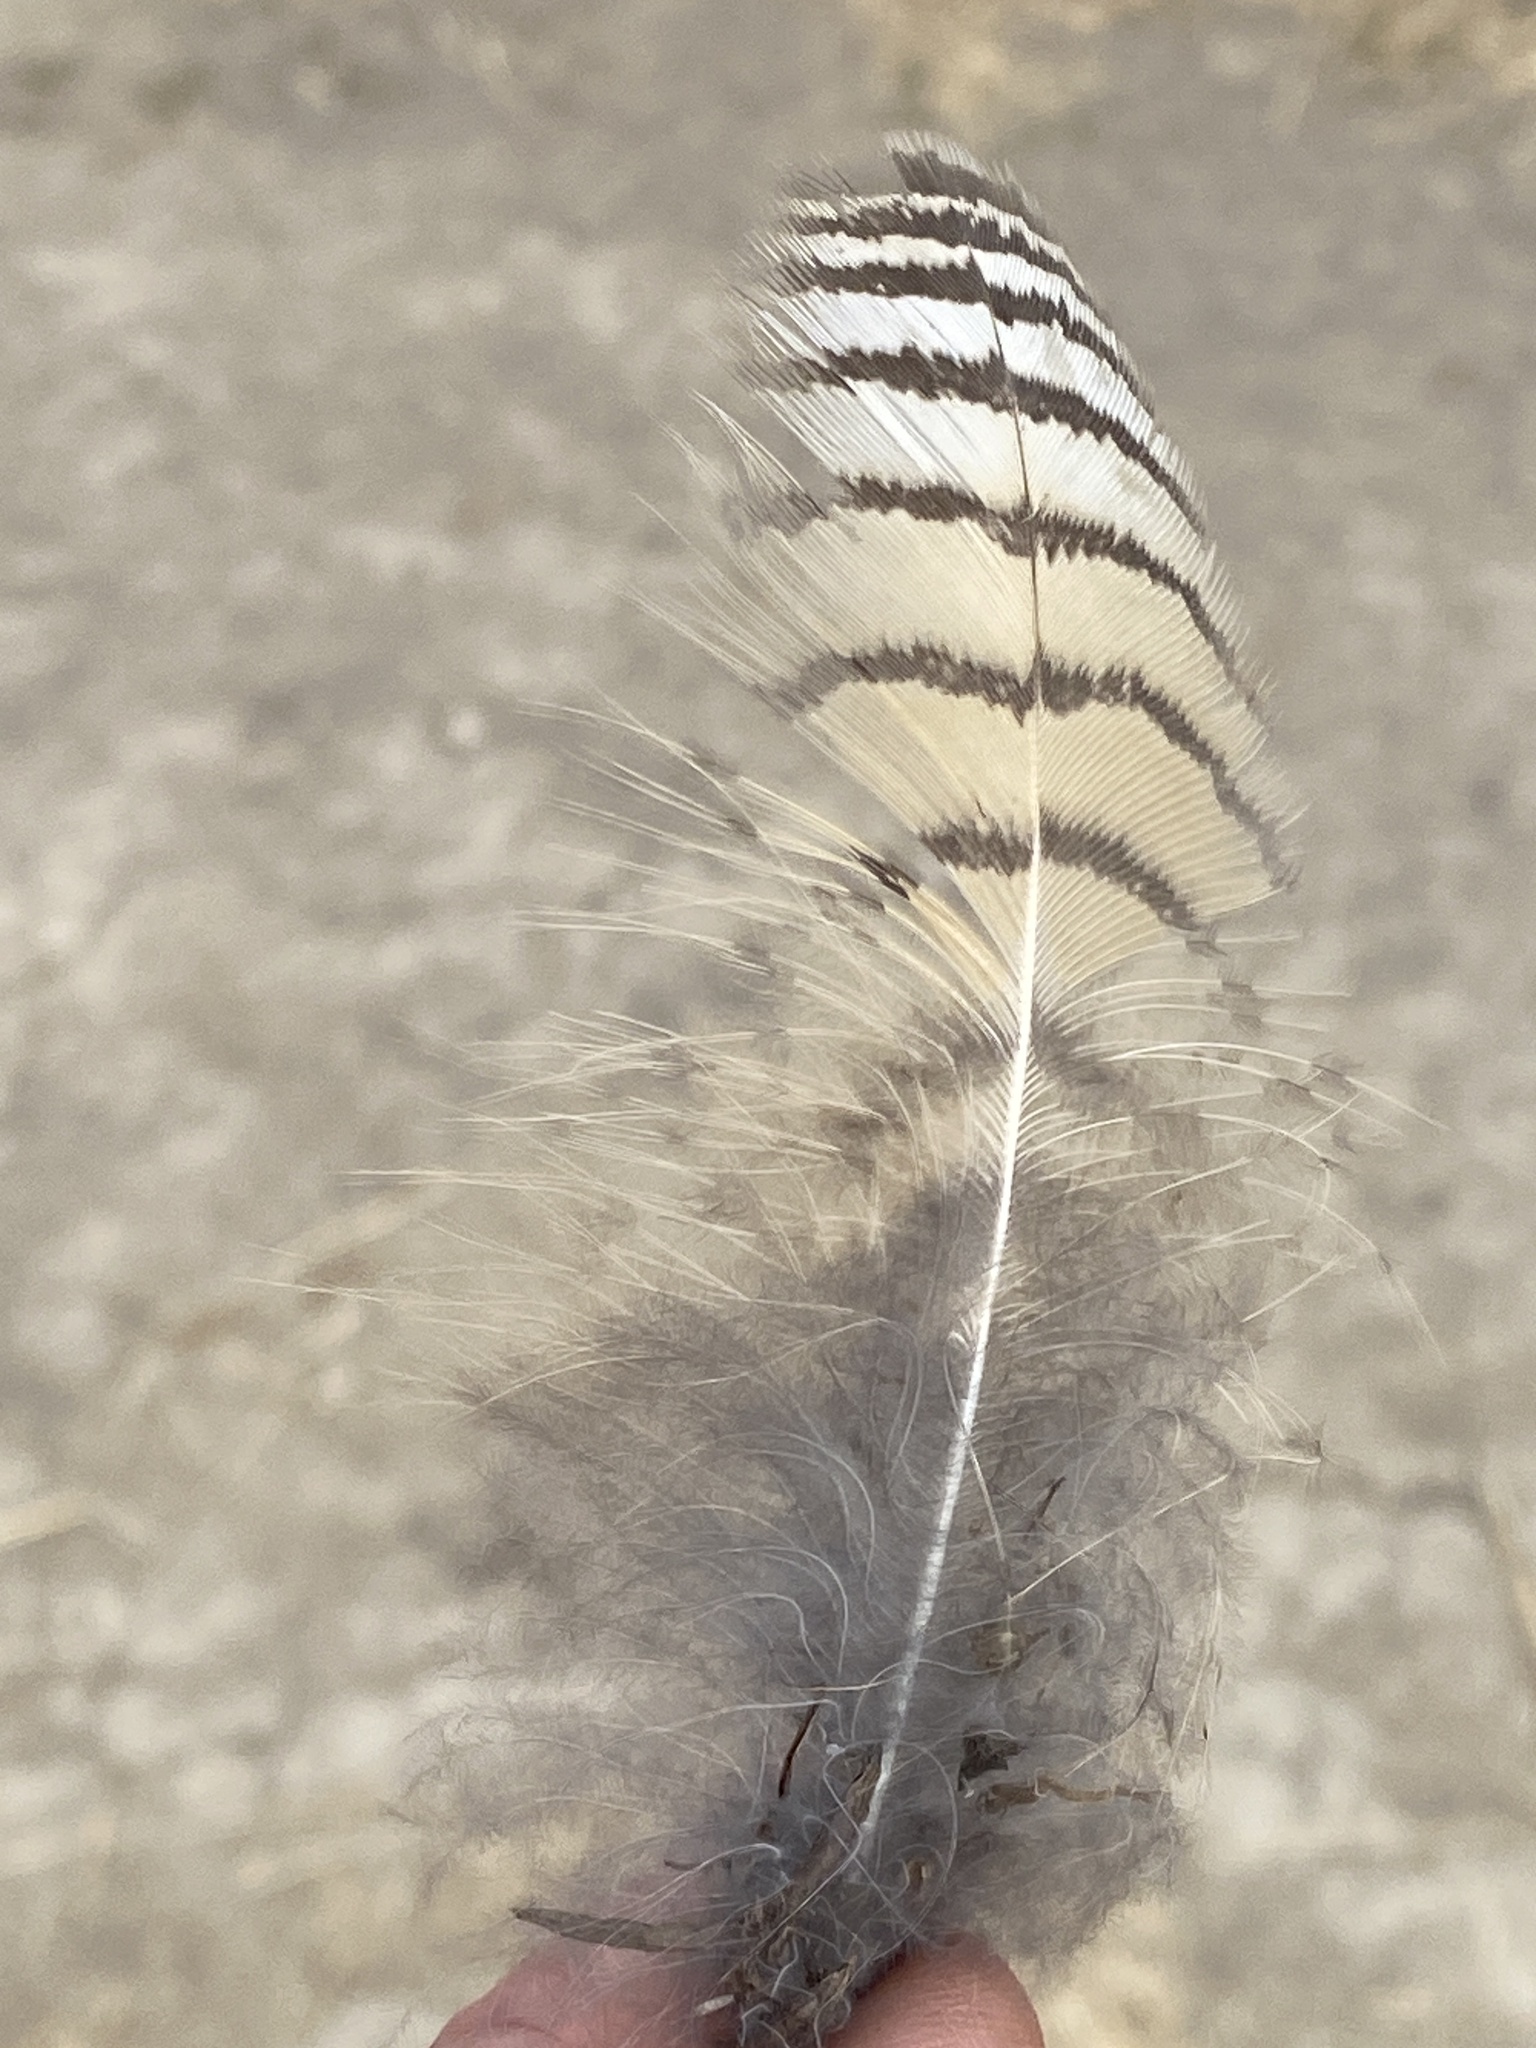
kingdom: Animalia
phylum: Chordata
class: Aves
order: Strigiformes
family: Strigidae
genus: Bubo
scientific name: Bubo virginianus
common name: Great horned owl
